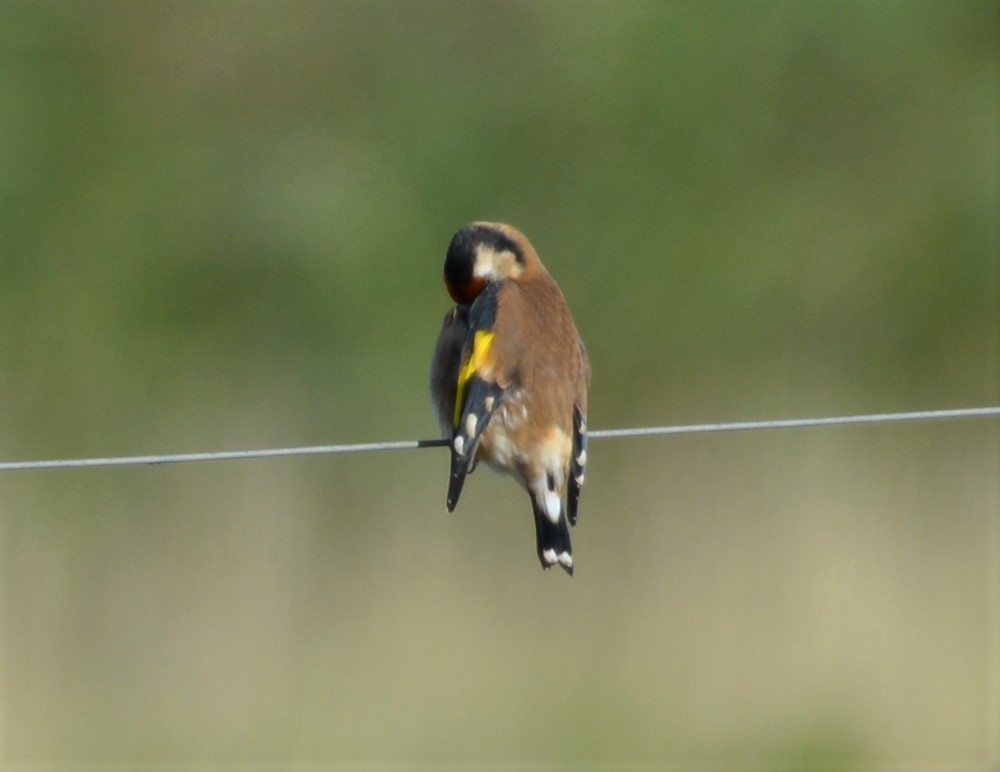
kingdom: Animalia
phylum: Chordata
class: Aves
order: Passeriformes
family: Fringillidae
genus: Carduelis
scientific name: Carduelis carduelis
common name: European goldfinch
